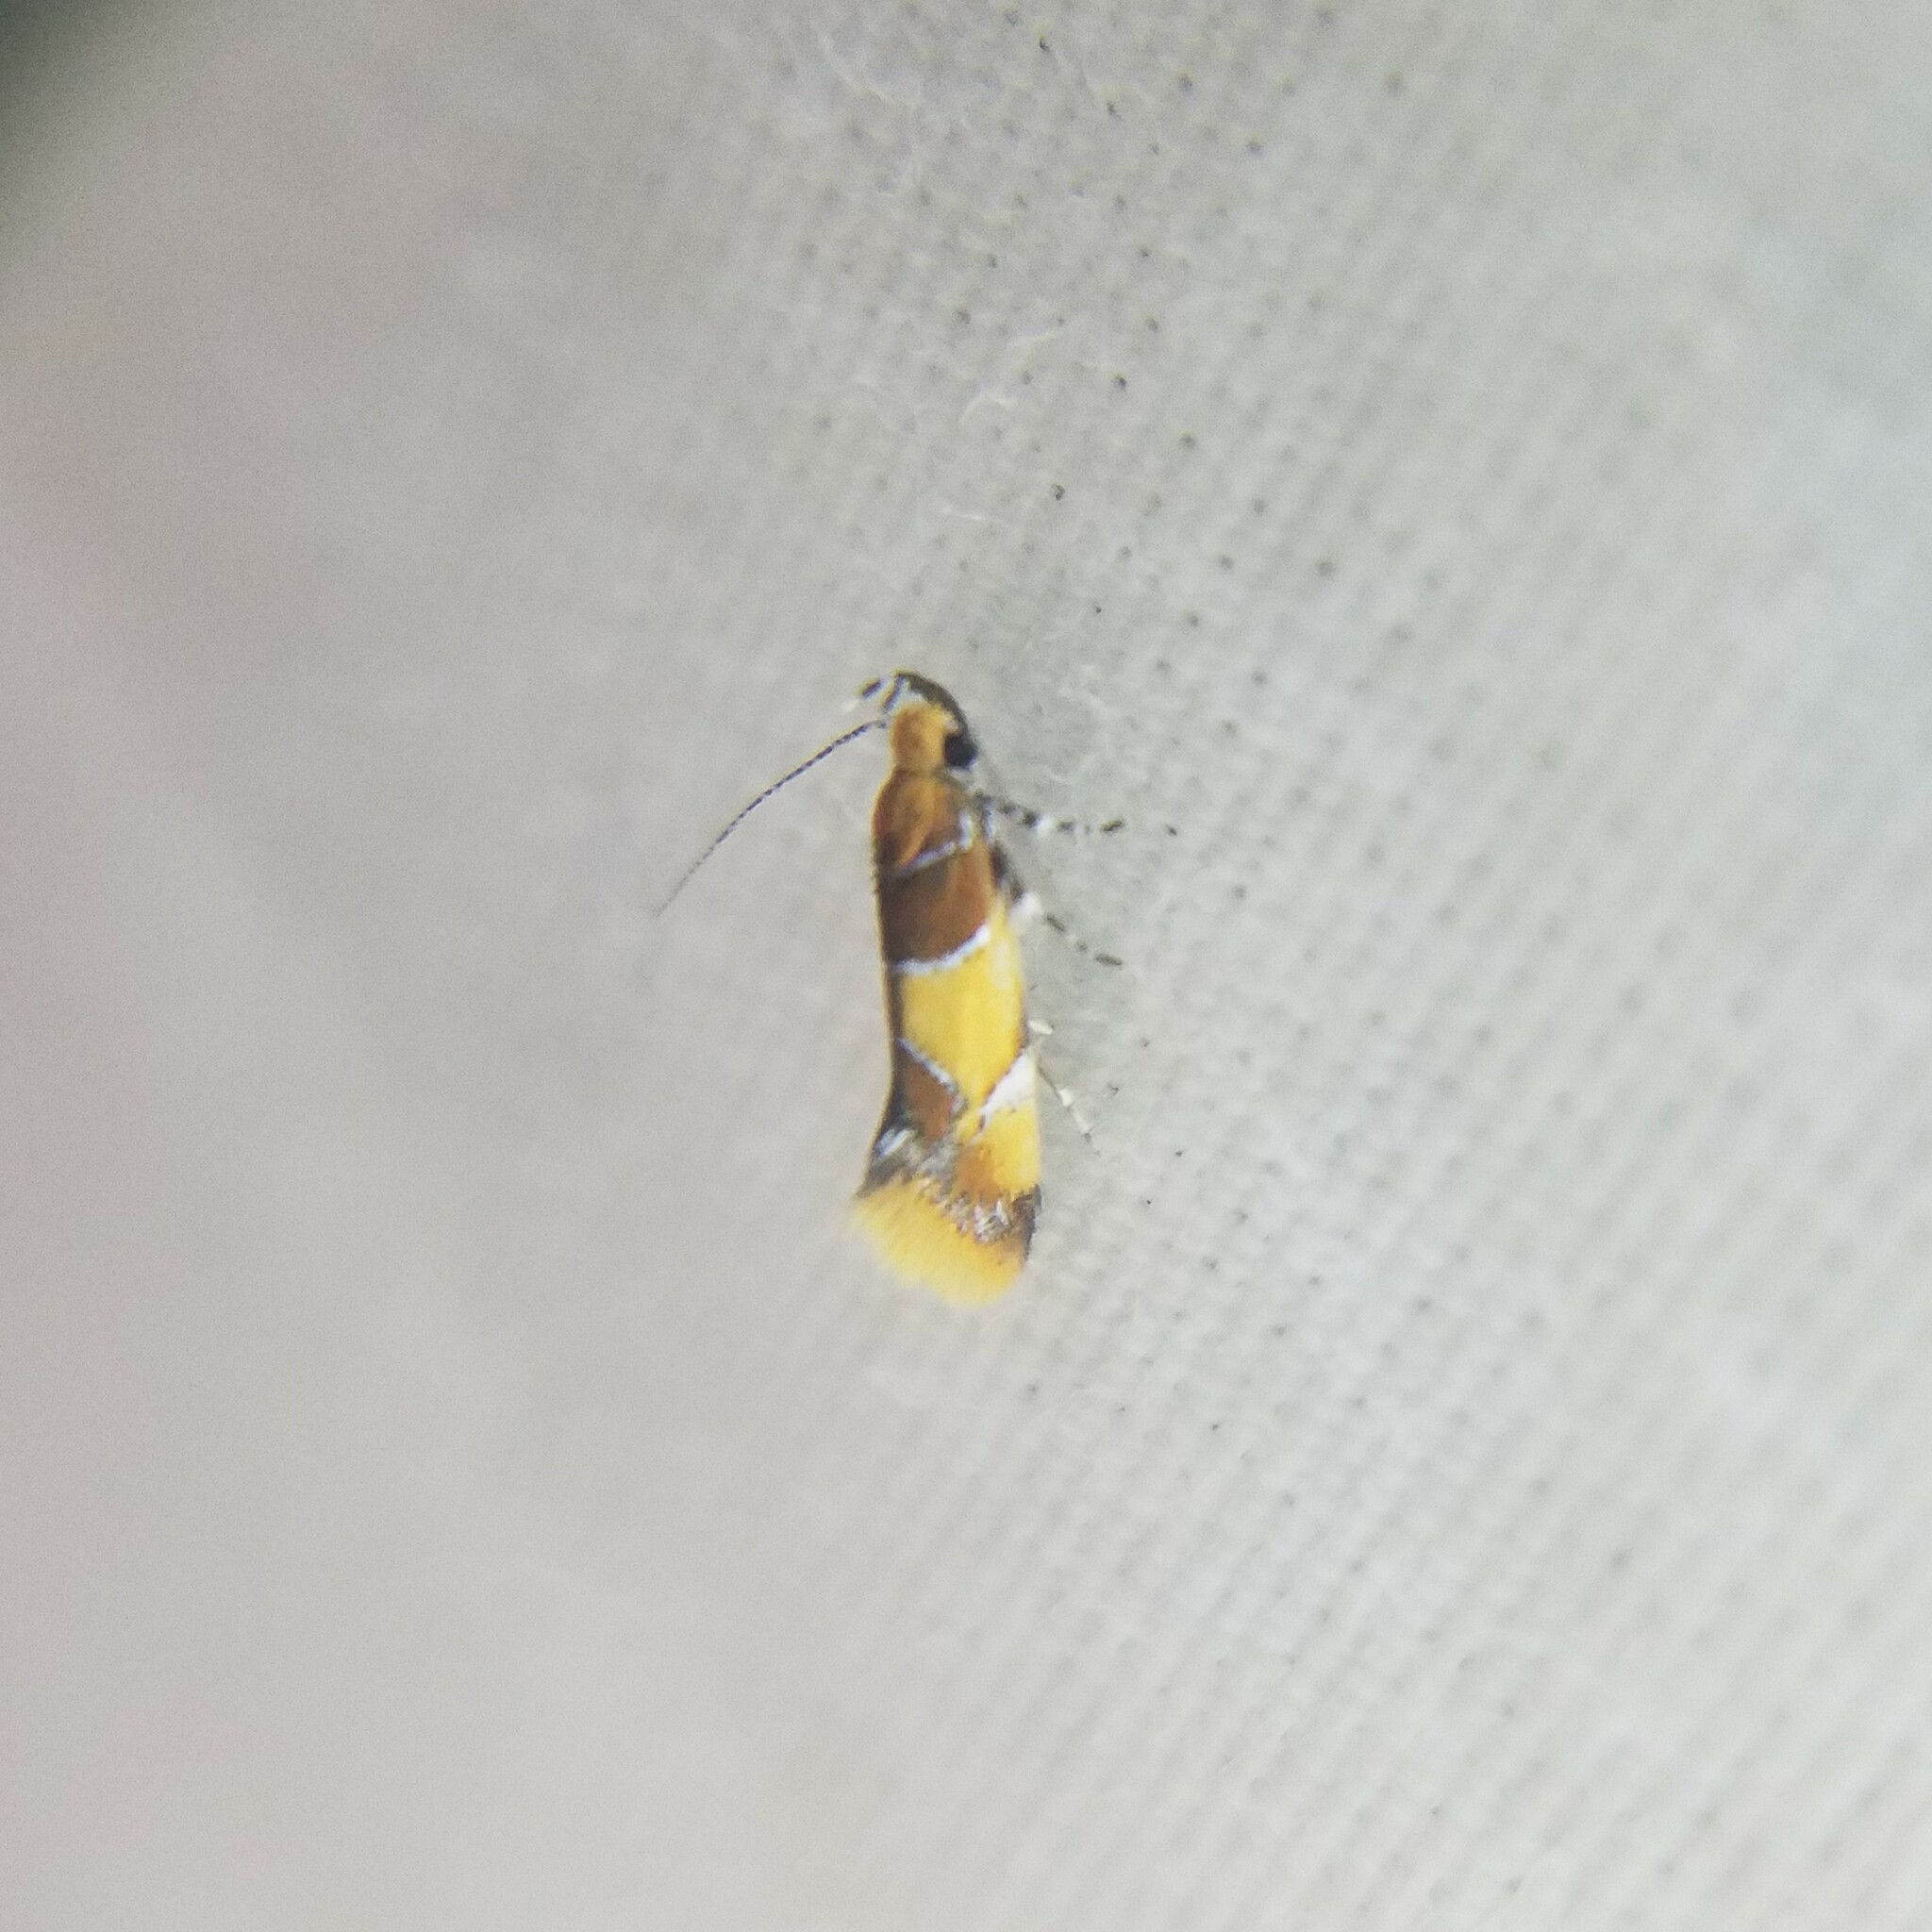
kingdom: Animalia
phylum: Arthropoda
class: Insecta
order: Lepidoptera
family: Oecophoridae
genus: Callima
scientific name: Callima argenticinctella
